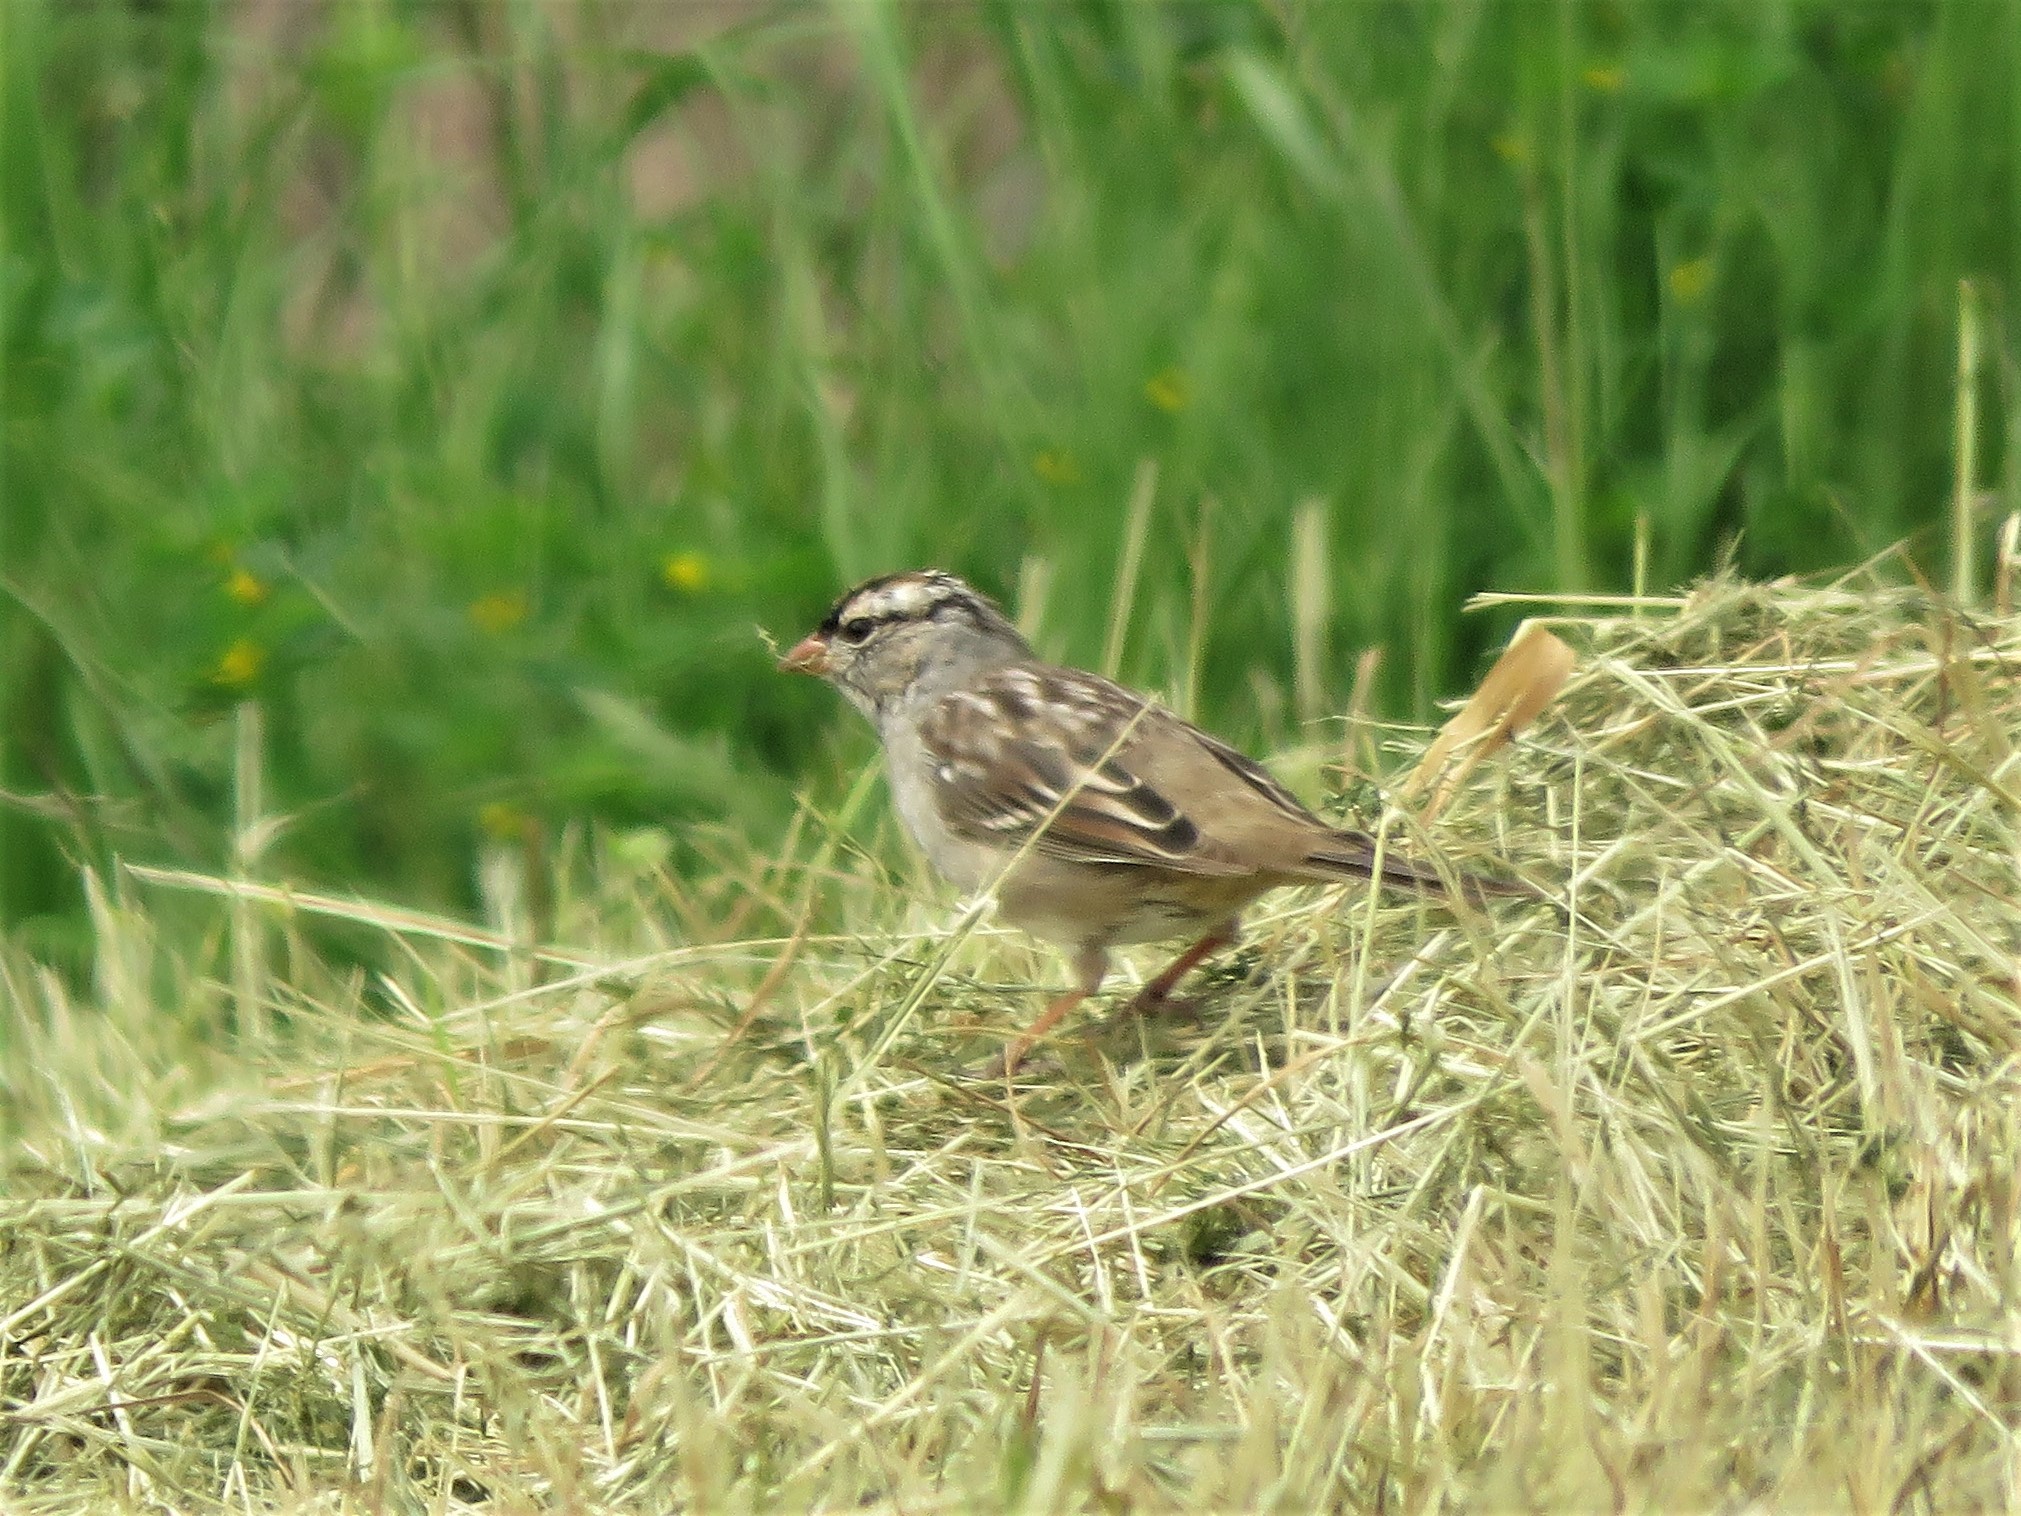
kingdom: Animalia
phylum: Chordata
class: Aves
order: Passeriformes
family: Passerellidae
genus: Zonotrichia
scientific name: Zonotrichia leucophrys
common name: White-crowned sparrow
